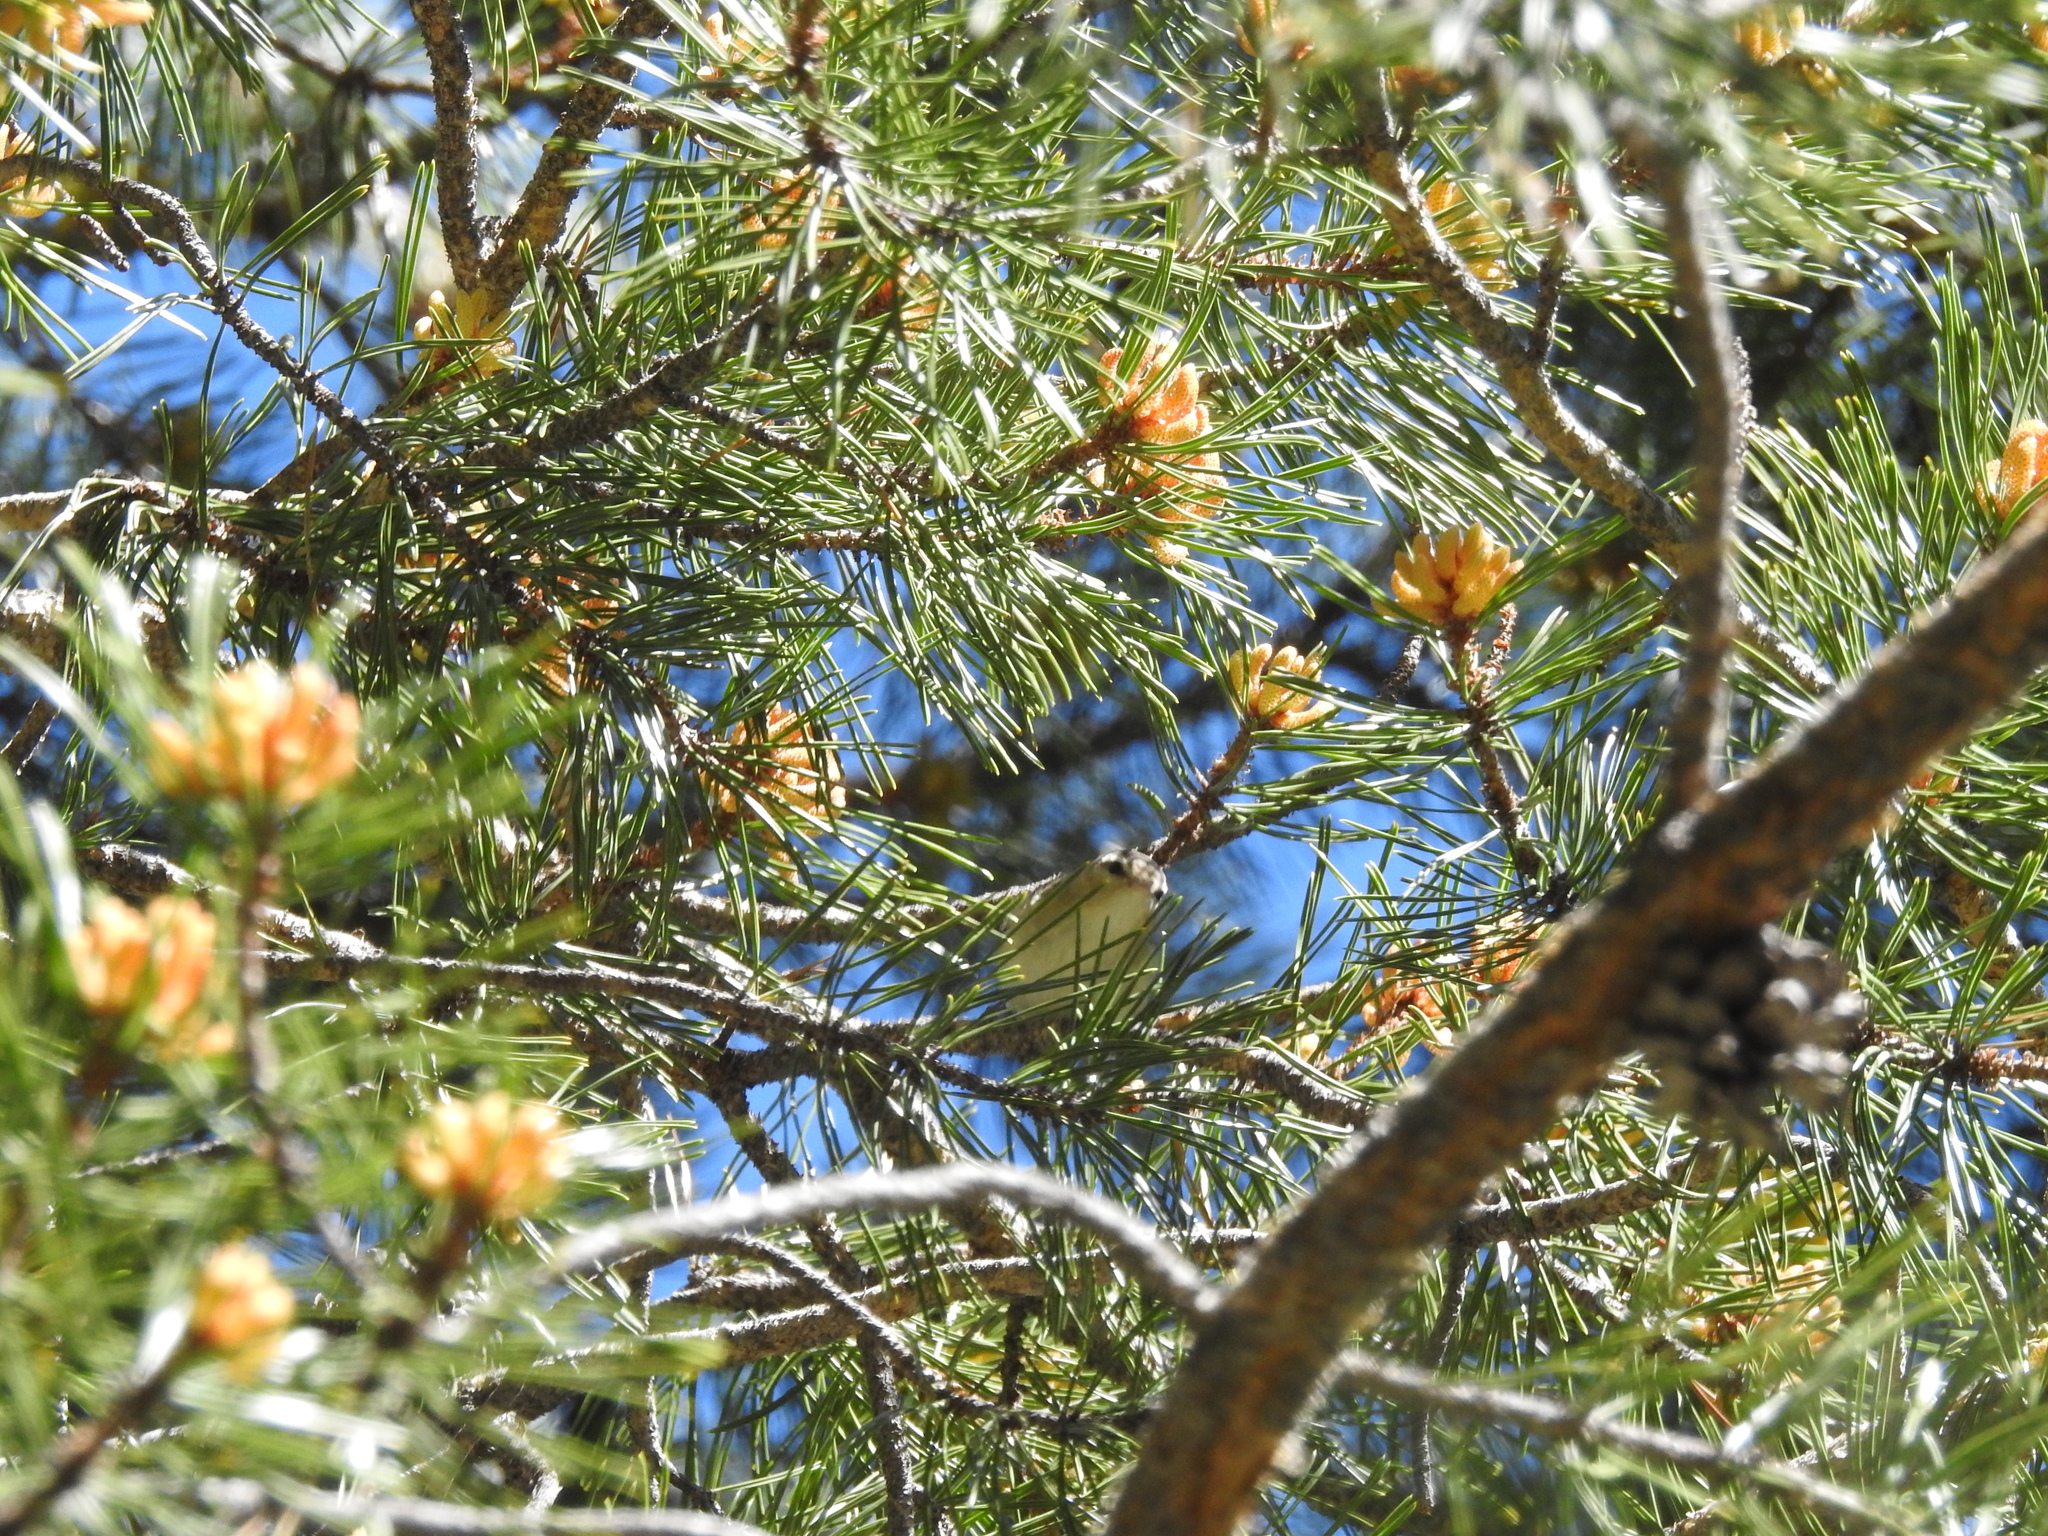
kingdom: Animalia
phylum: Chordata
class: Aves
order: Passeriformes
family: Vireonidae
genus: Vireo
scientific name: Vireo gilvus
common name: Warbling vireo
